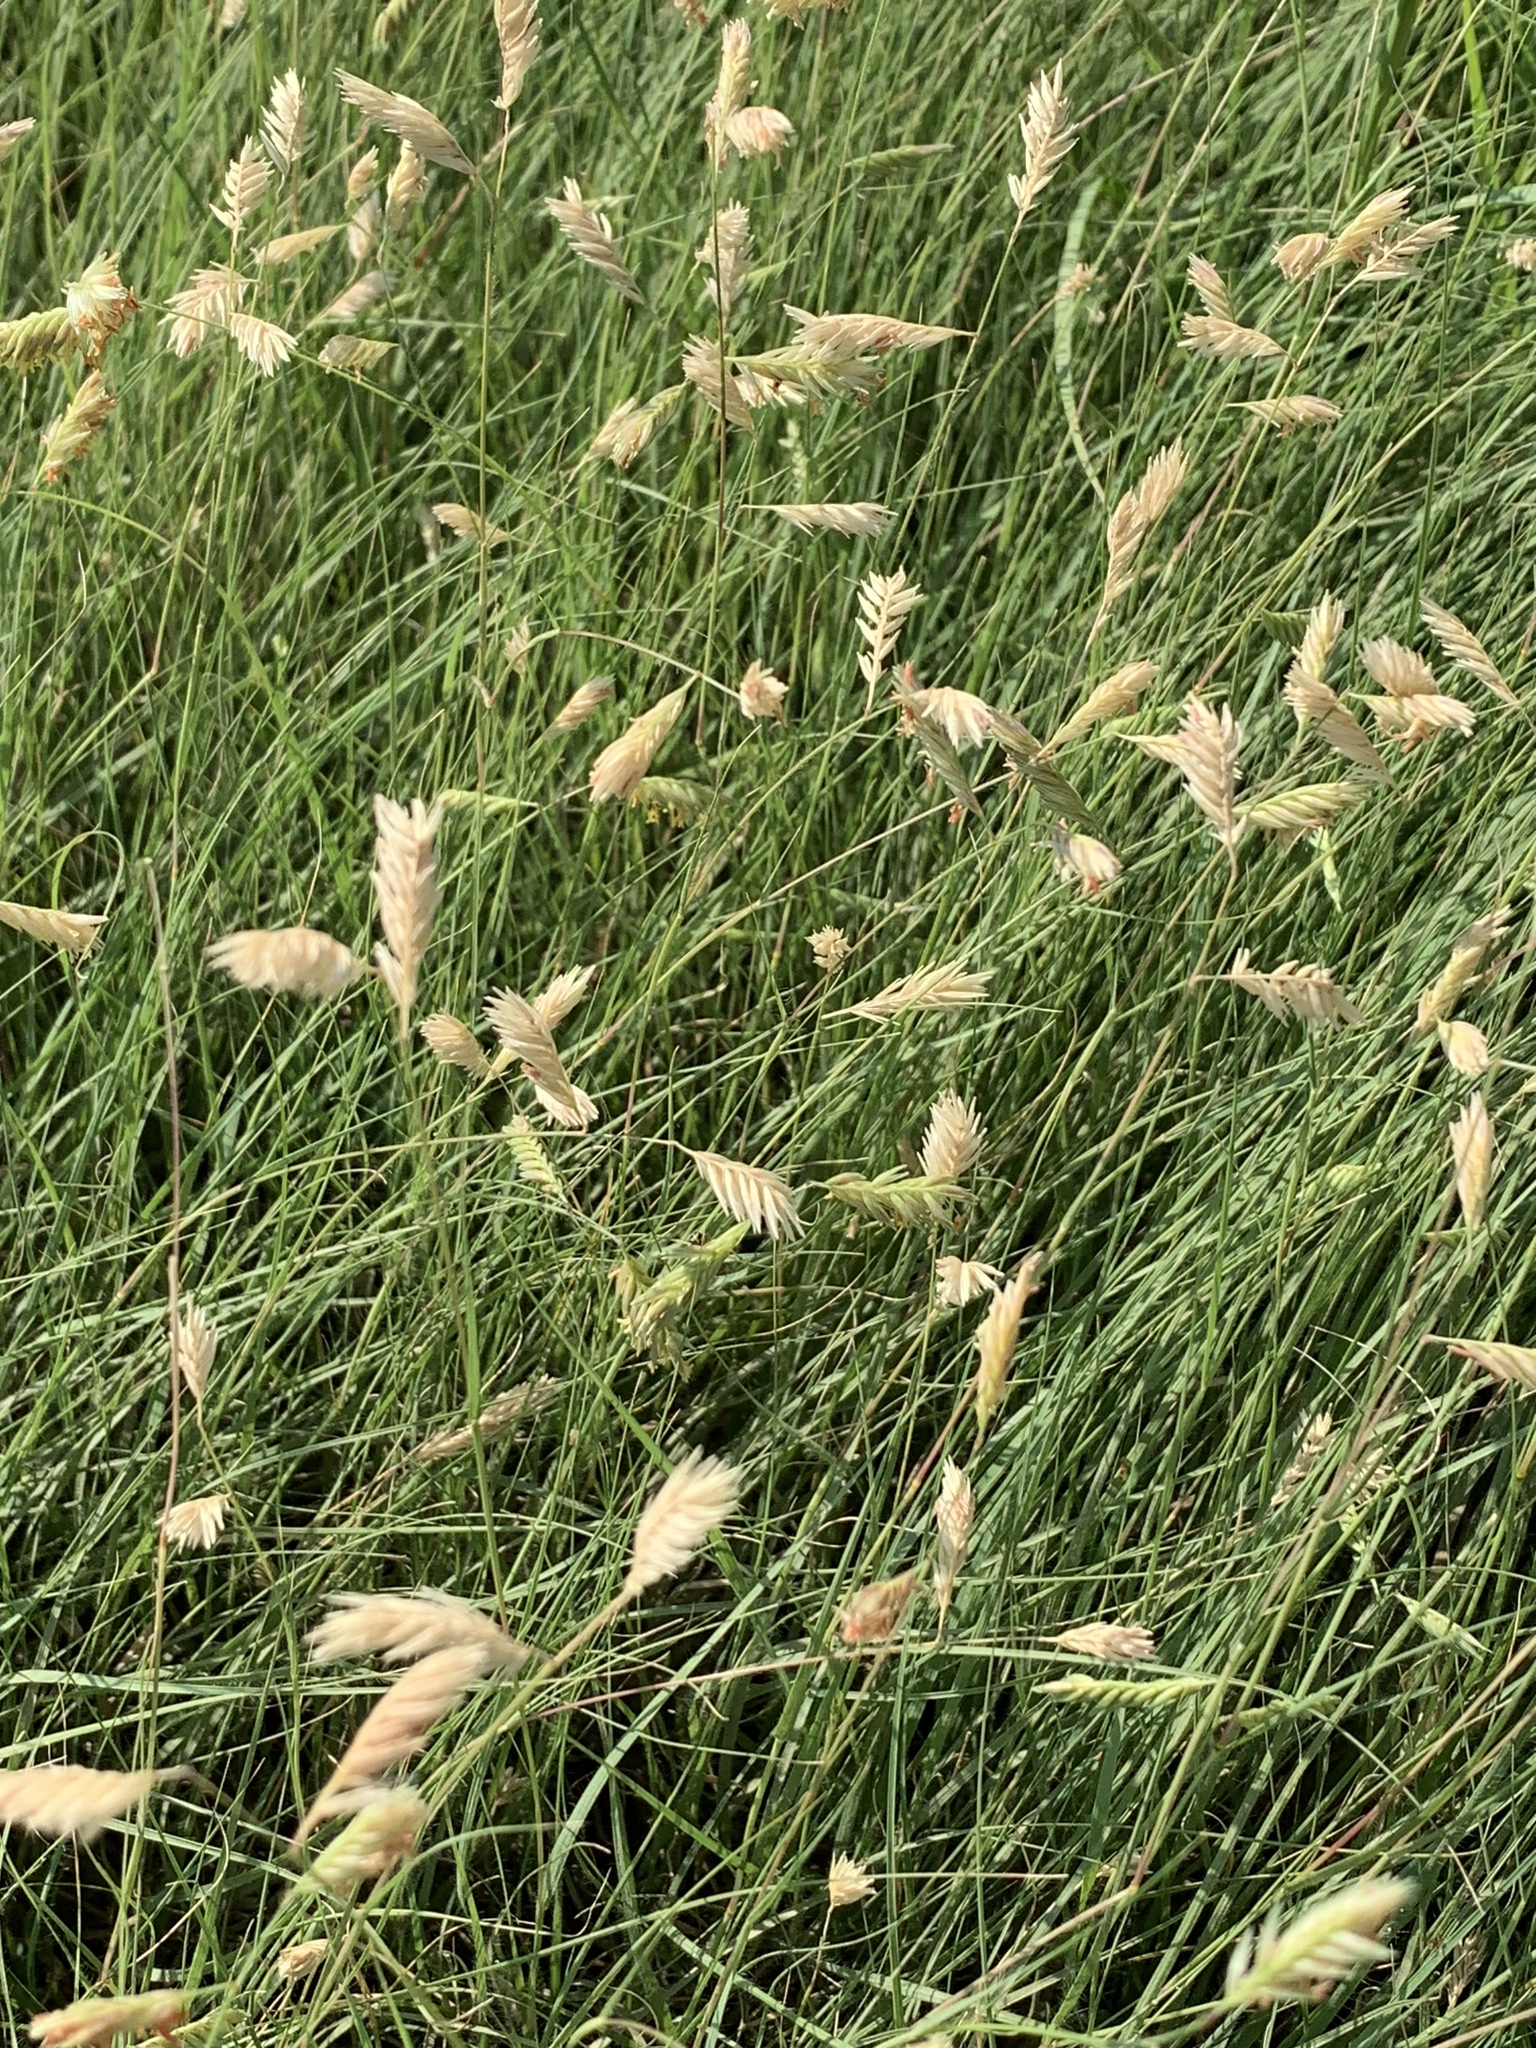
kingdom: Plantae
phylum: Tracheophyta
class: Liliopsida
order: Poales
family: Poaceae
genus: Bouteloua
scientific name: Bouteloua dactyloides
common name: Buffalo grass
